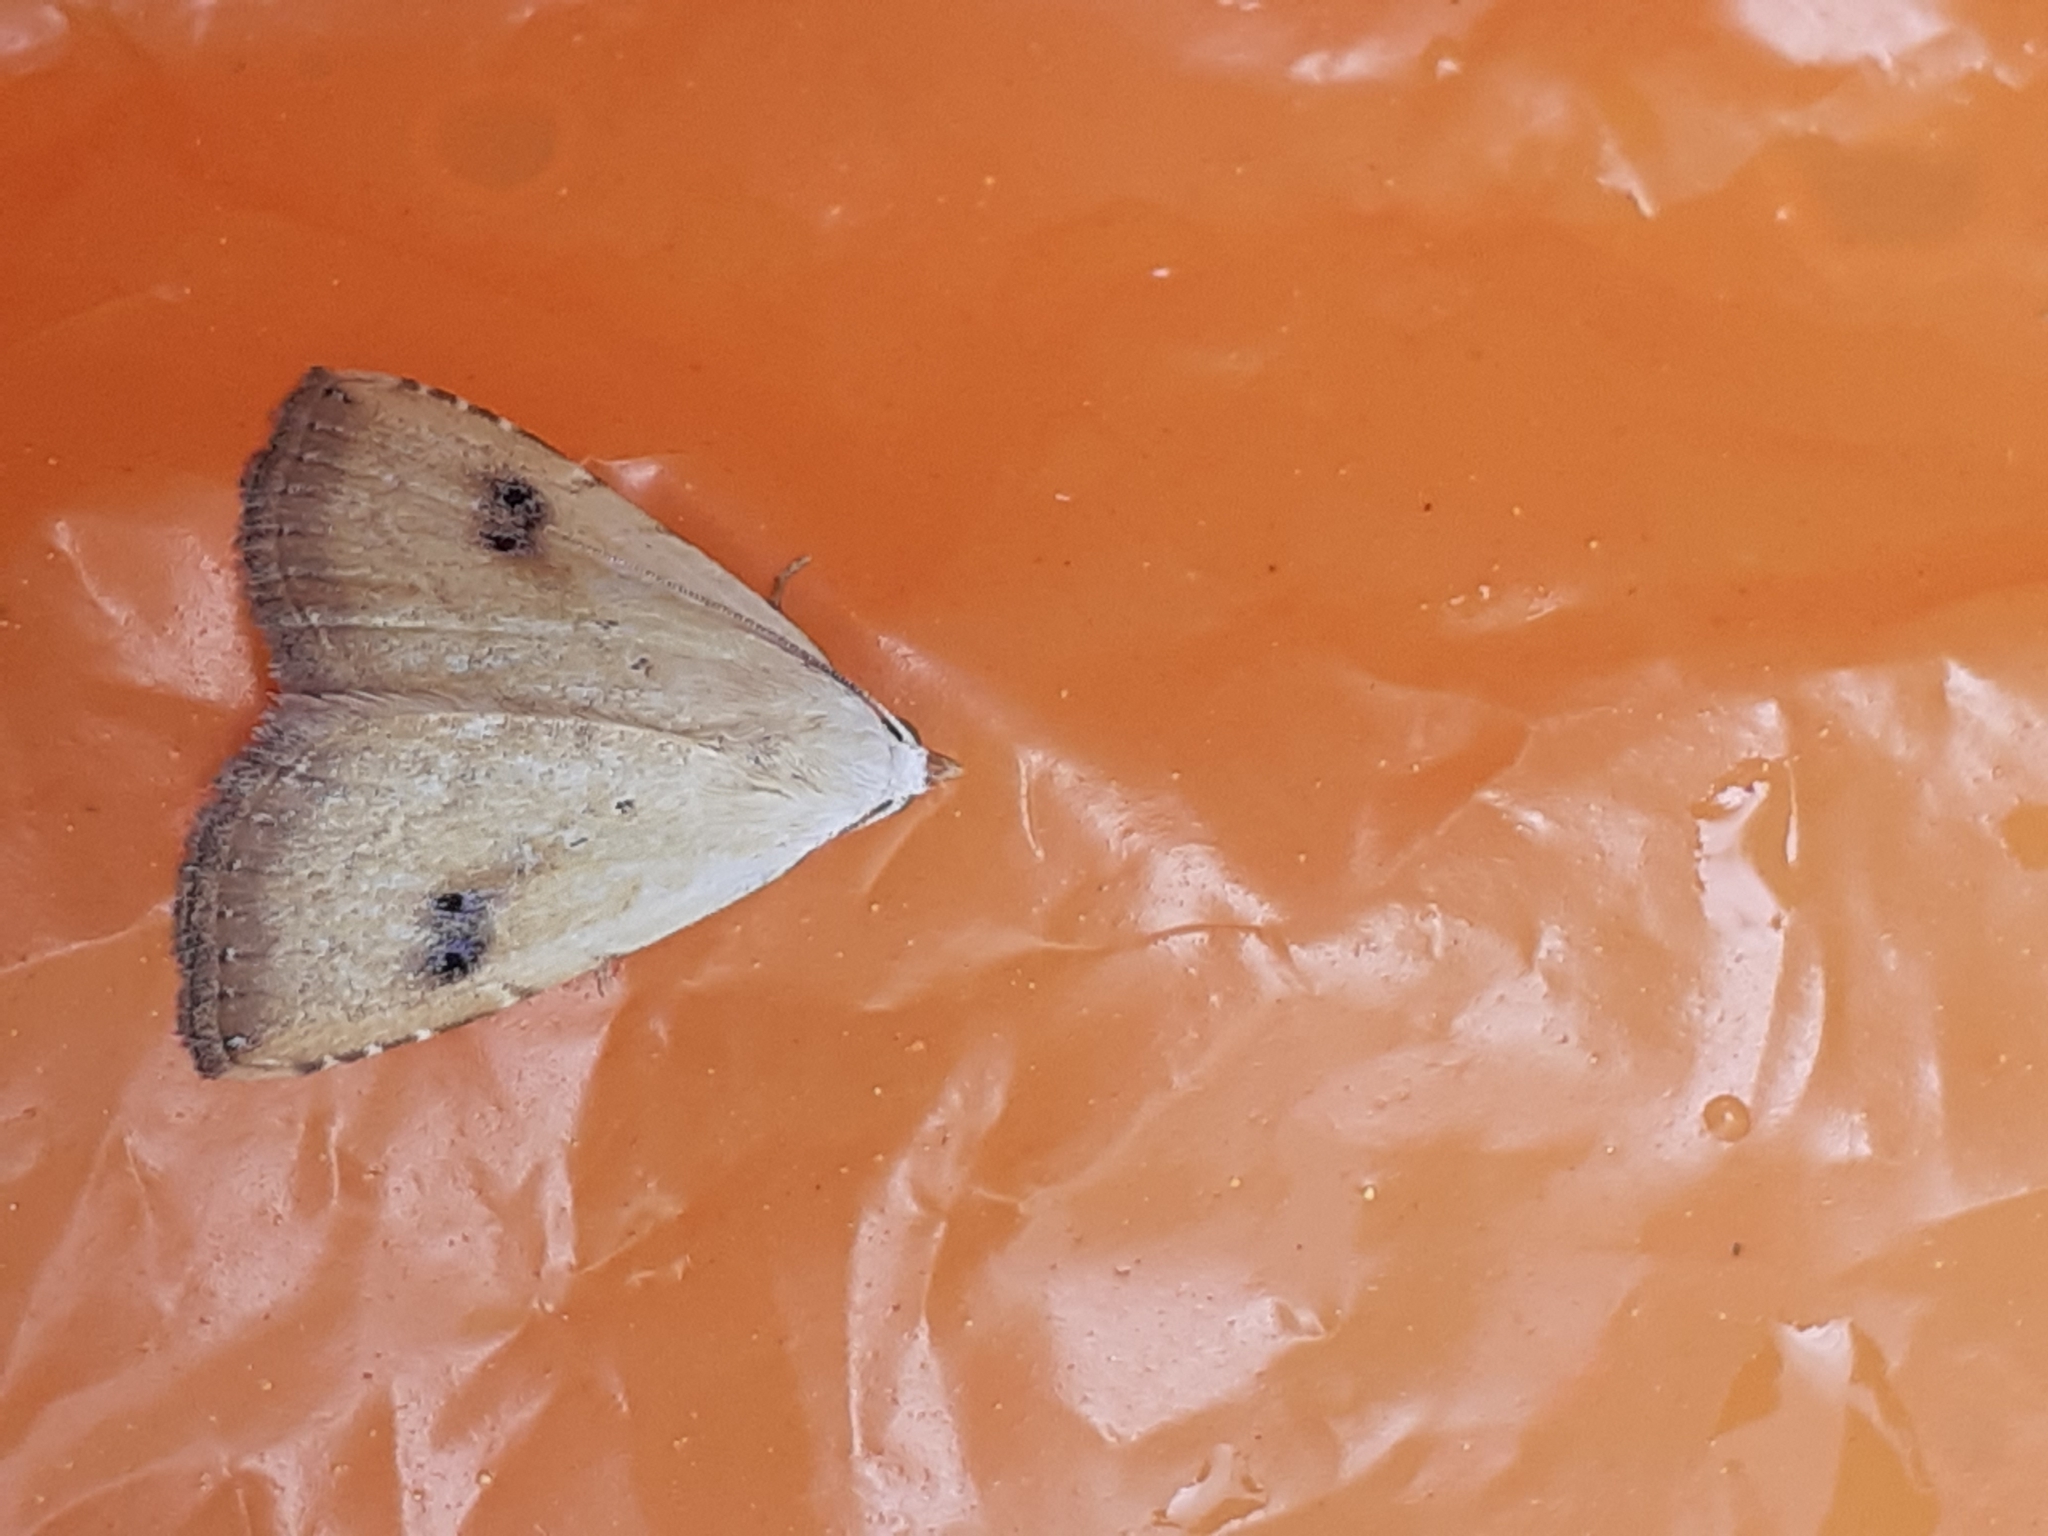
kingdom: Animalia
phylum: Arthropoda
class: Insecta
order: Lepidoptera
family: Erebidae
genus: Rivula
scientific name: Rivula sericealis
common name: Straw dot
